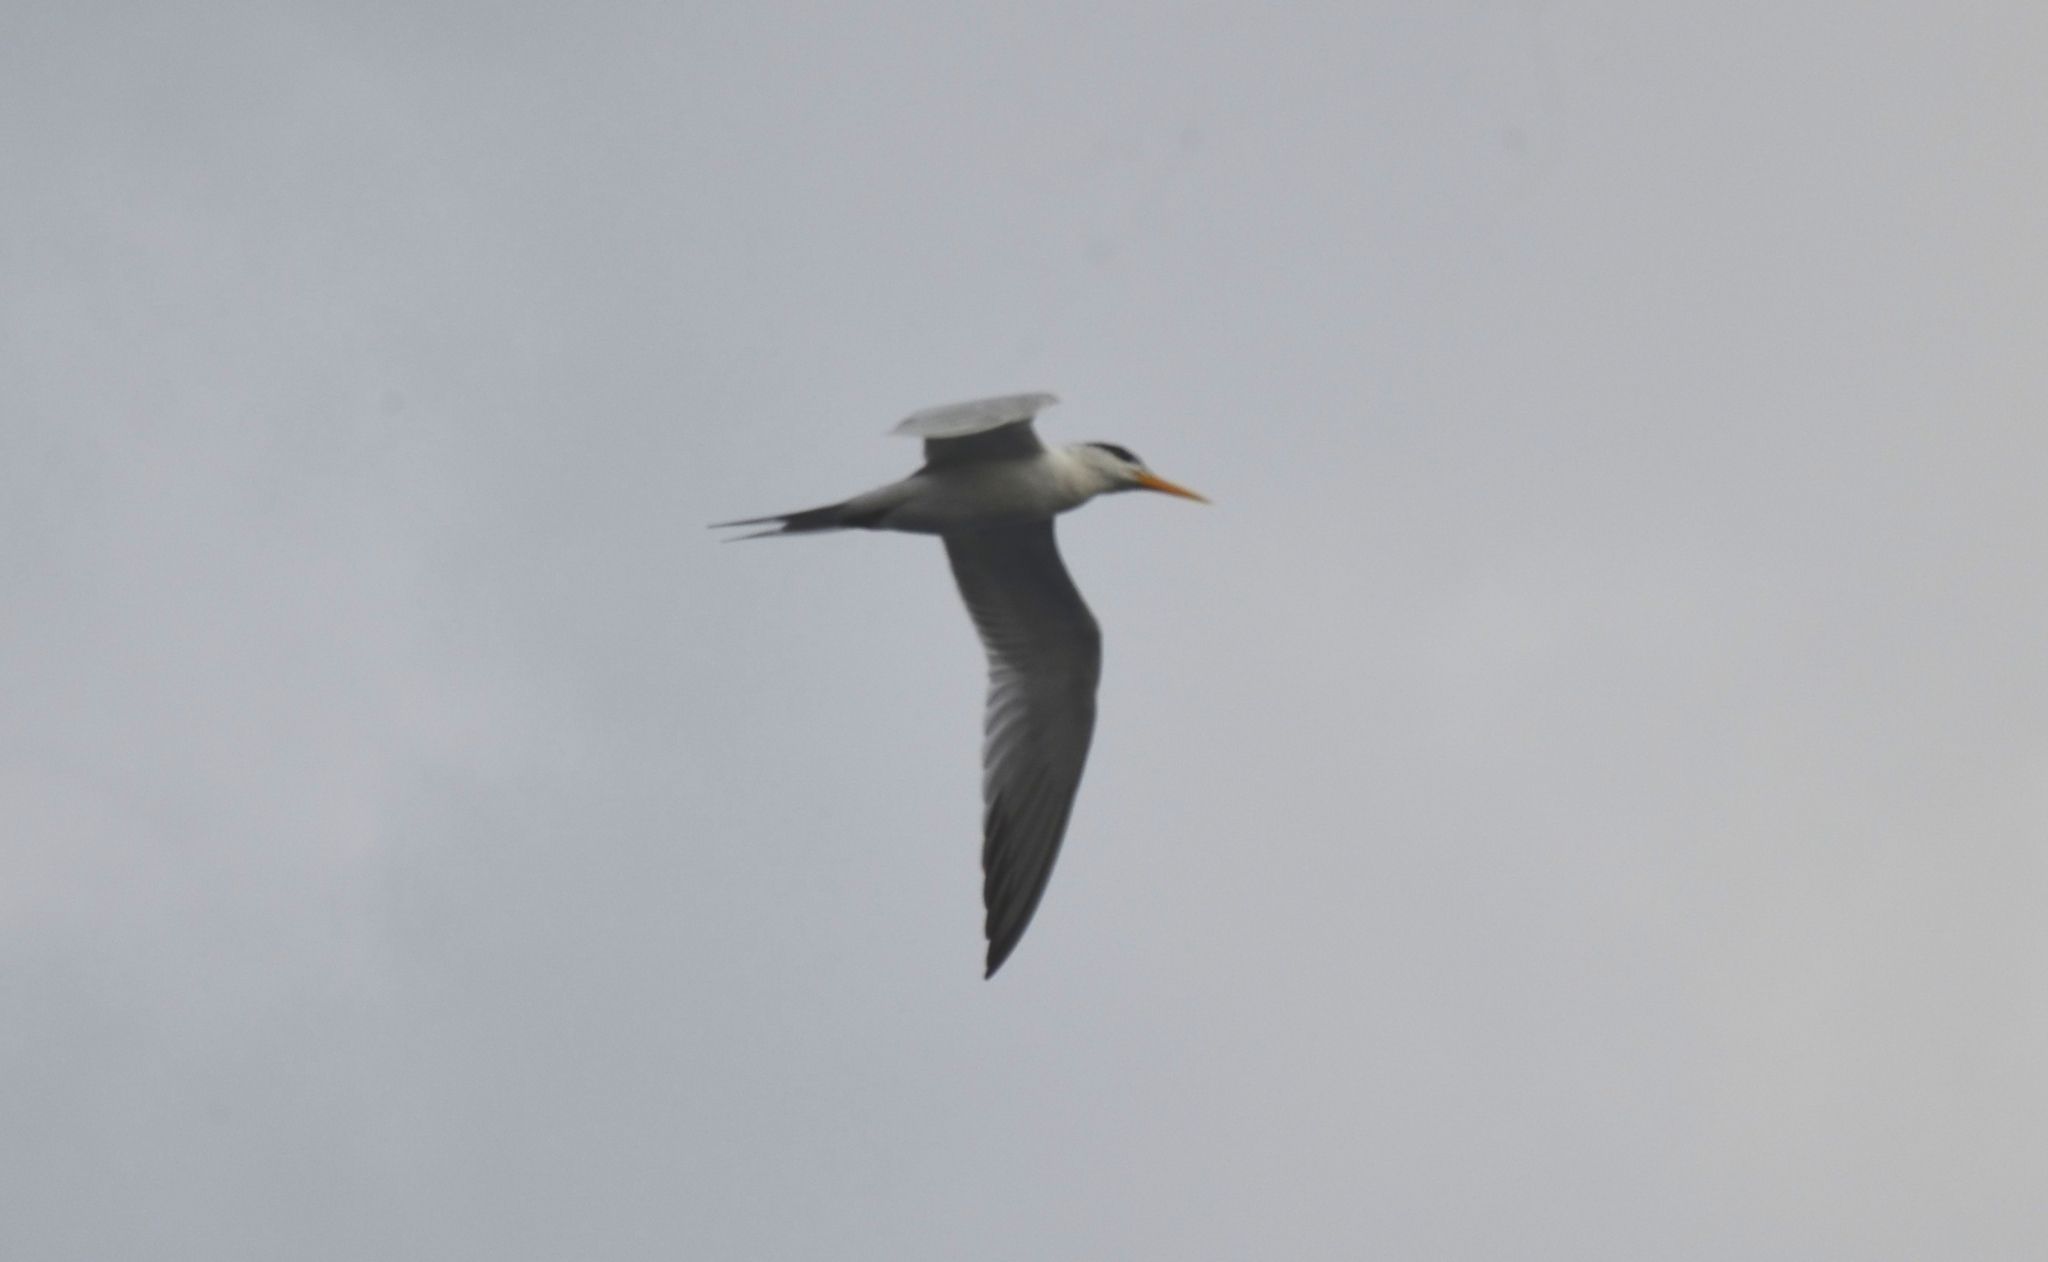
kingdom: Animalia
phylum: Chordata
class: Aves
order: Charadriiformes
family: Laridae
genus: Thalasseus
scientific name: Thalasseus bengalensis
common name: Lesser crested tern
